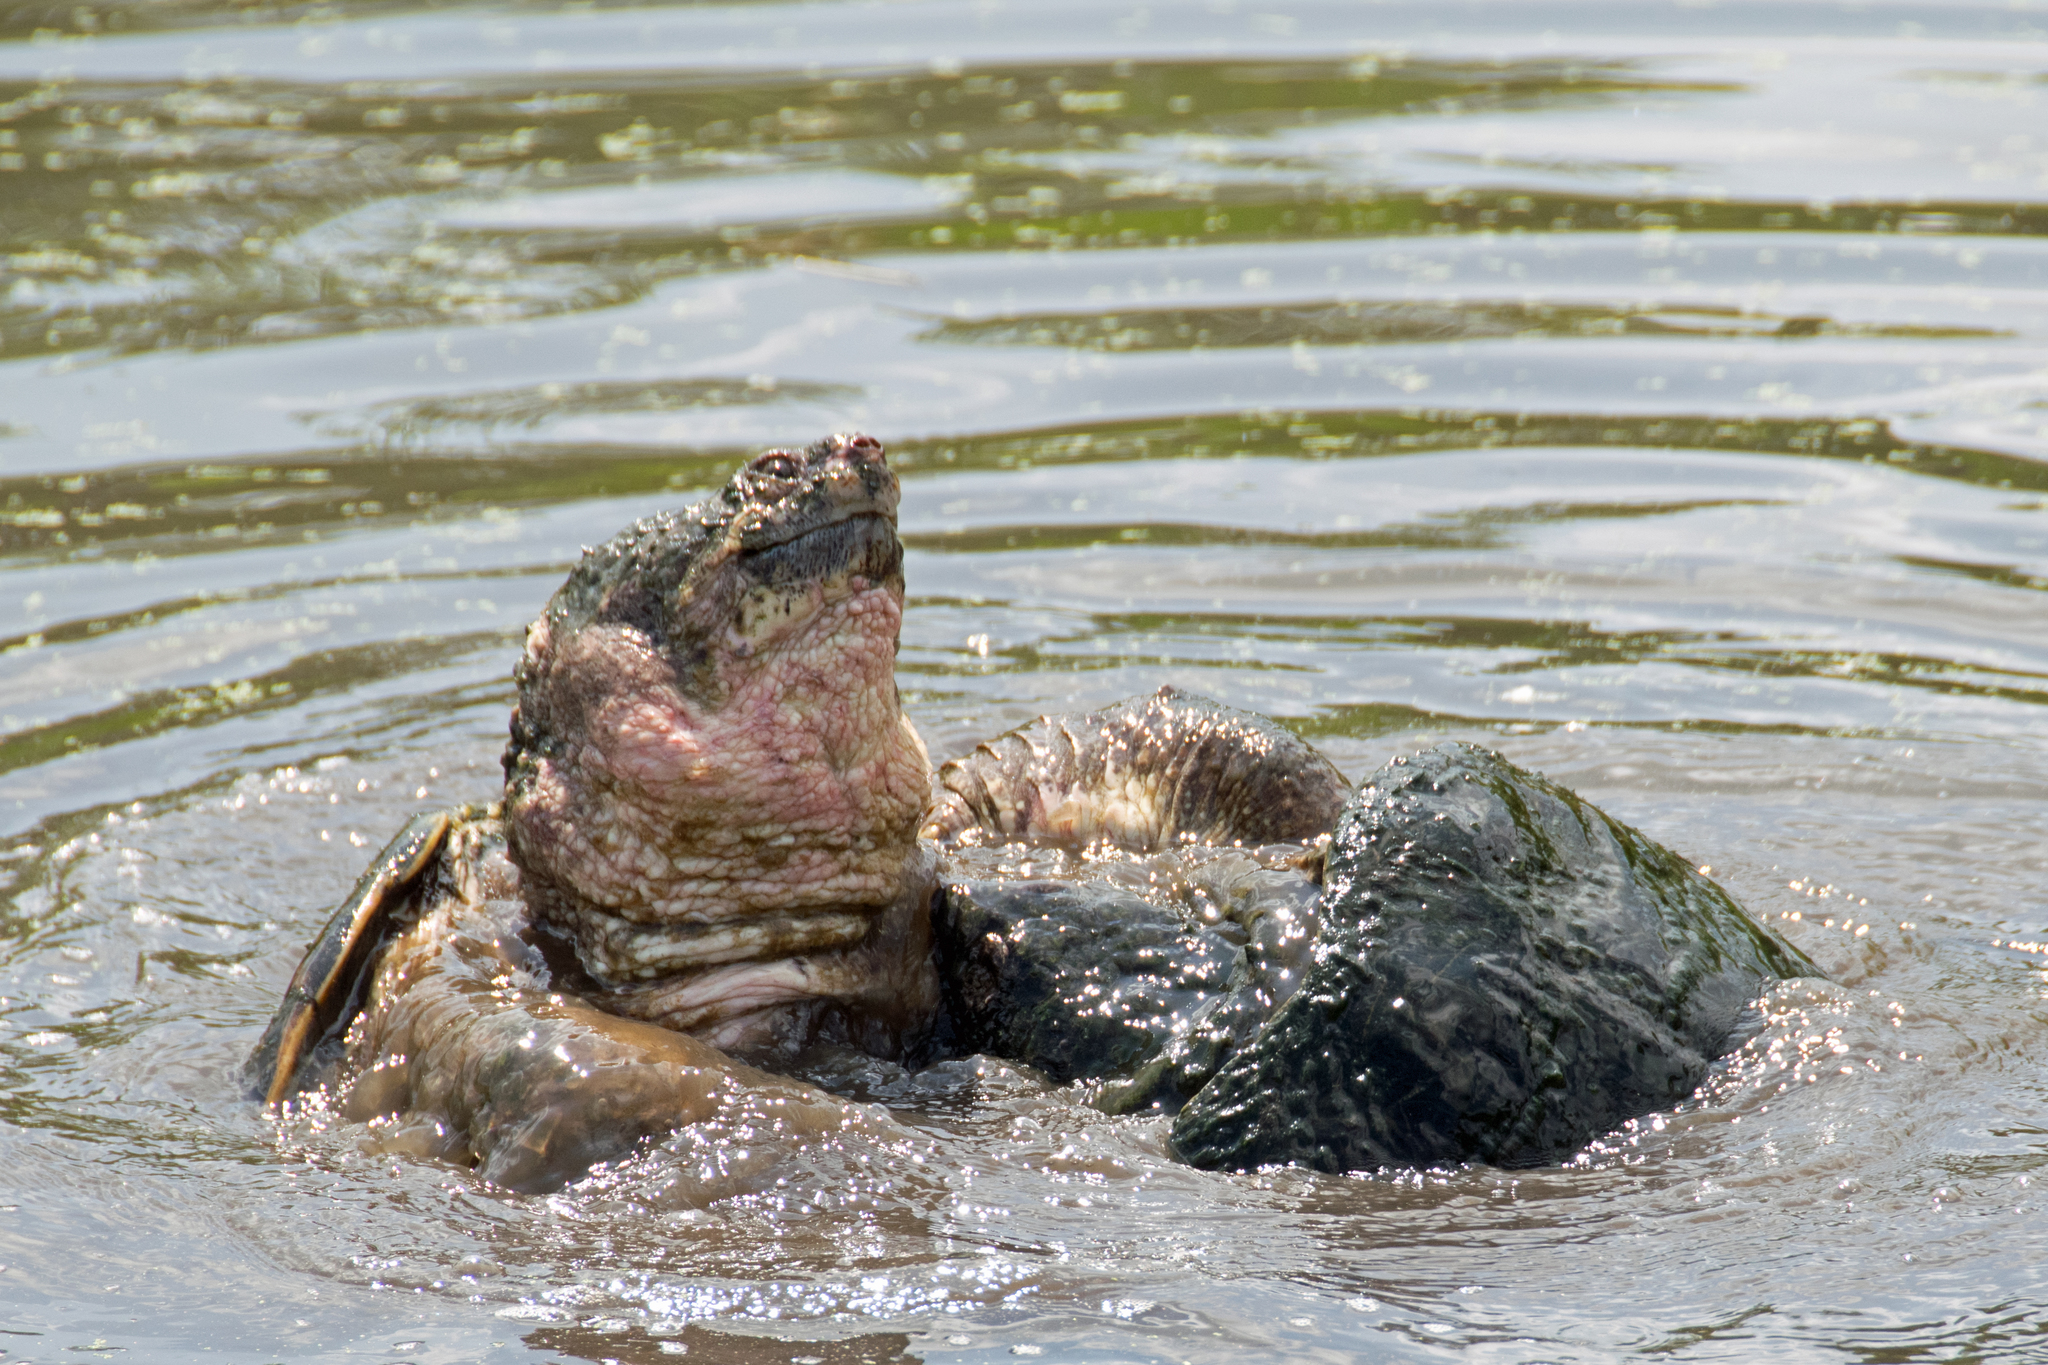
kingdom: Animalia
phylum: Chordata
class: Testudines
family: Chelydridae
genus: Chelydra
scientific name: Chelydra serpentina
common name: Common snapping turtle
